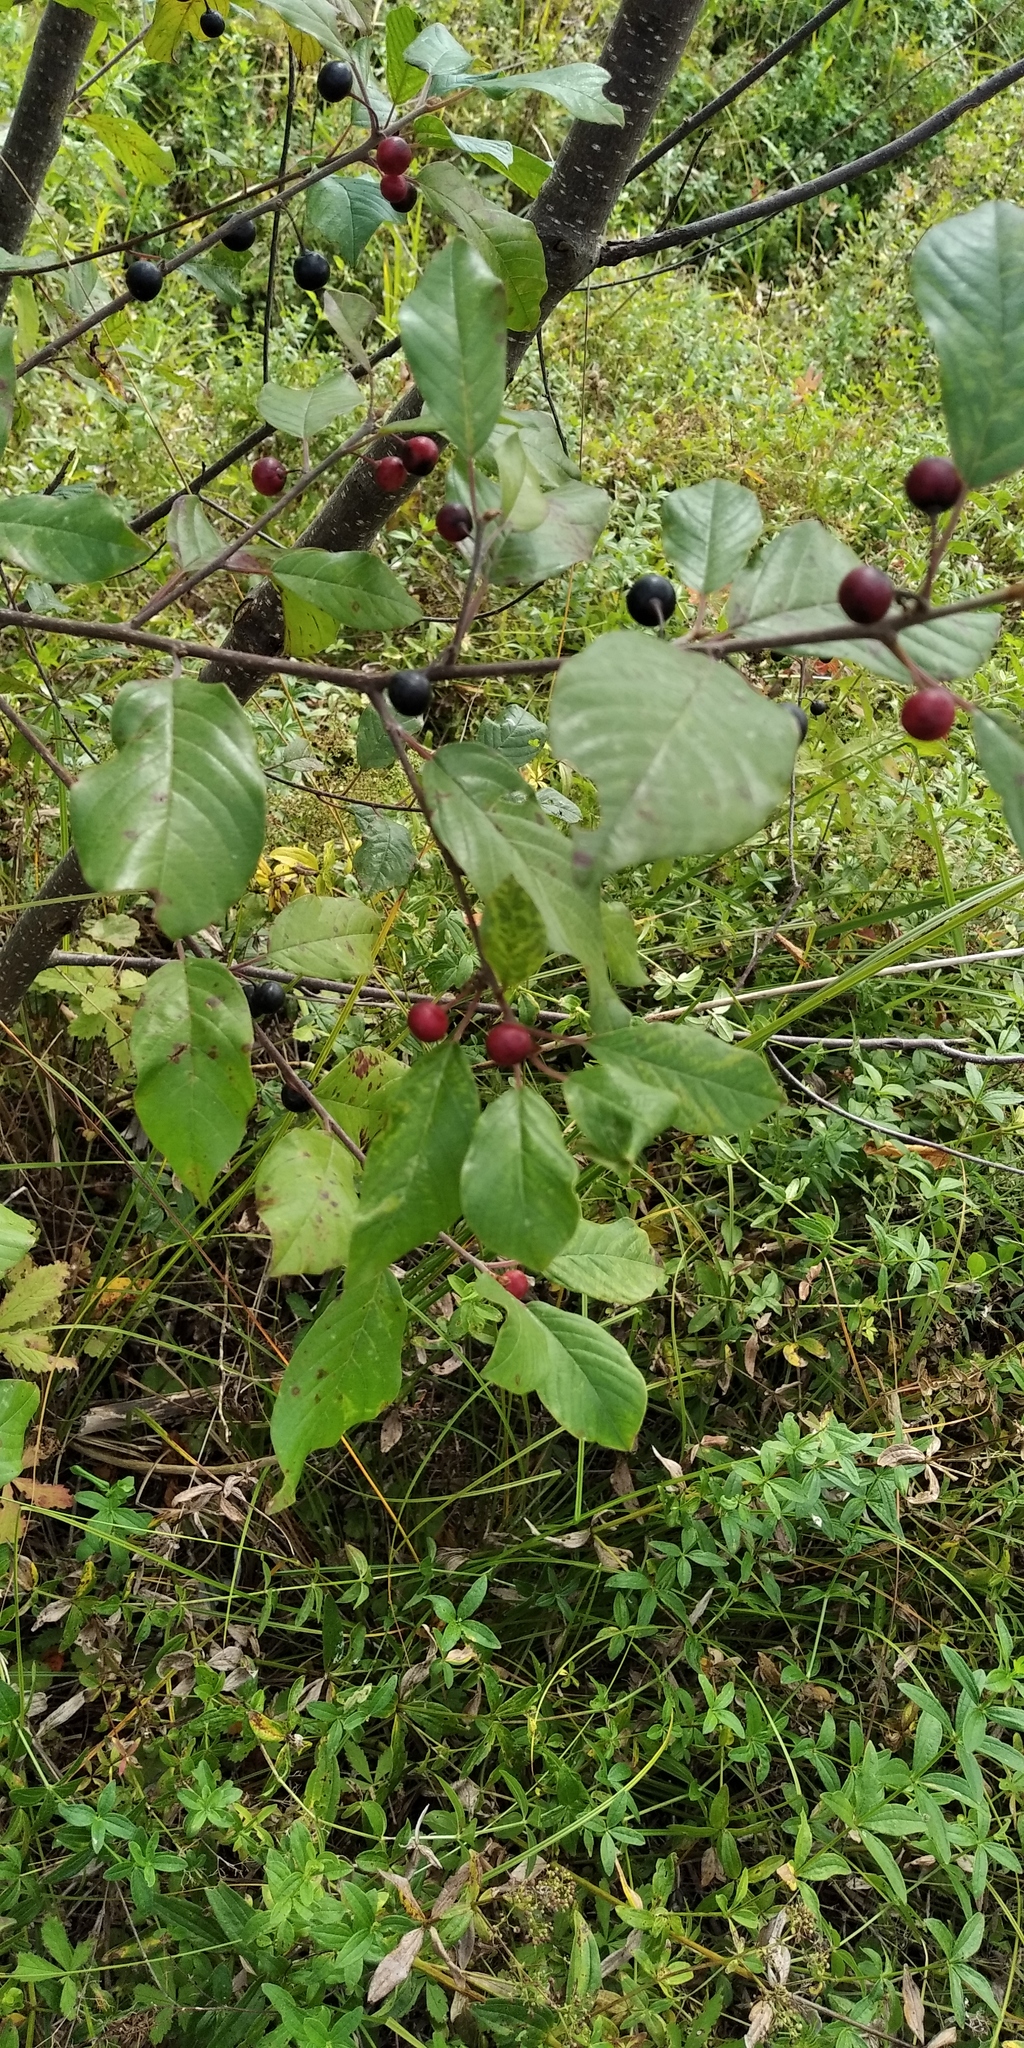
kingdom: Plantae
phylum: Tracheophyta
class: Magnoliopsida
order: Rosales
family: Rhamnaceae
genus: Frangula
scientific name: Frangula alnus
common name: Alder buckthorn
